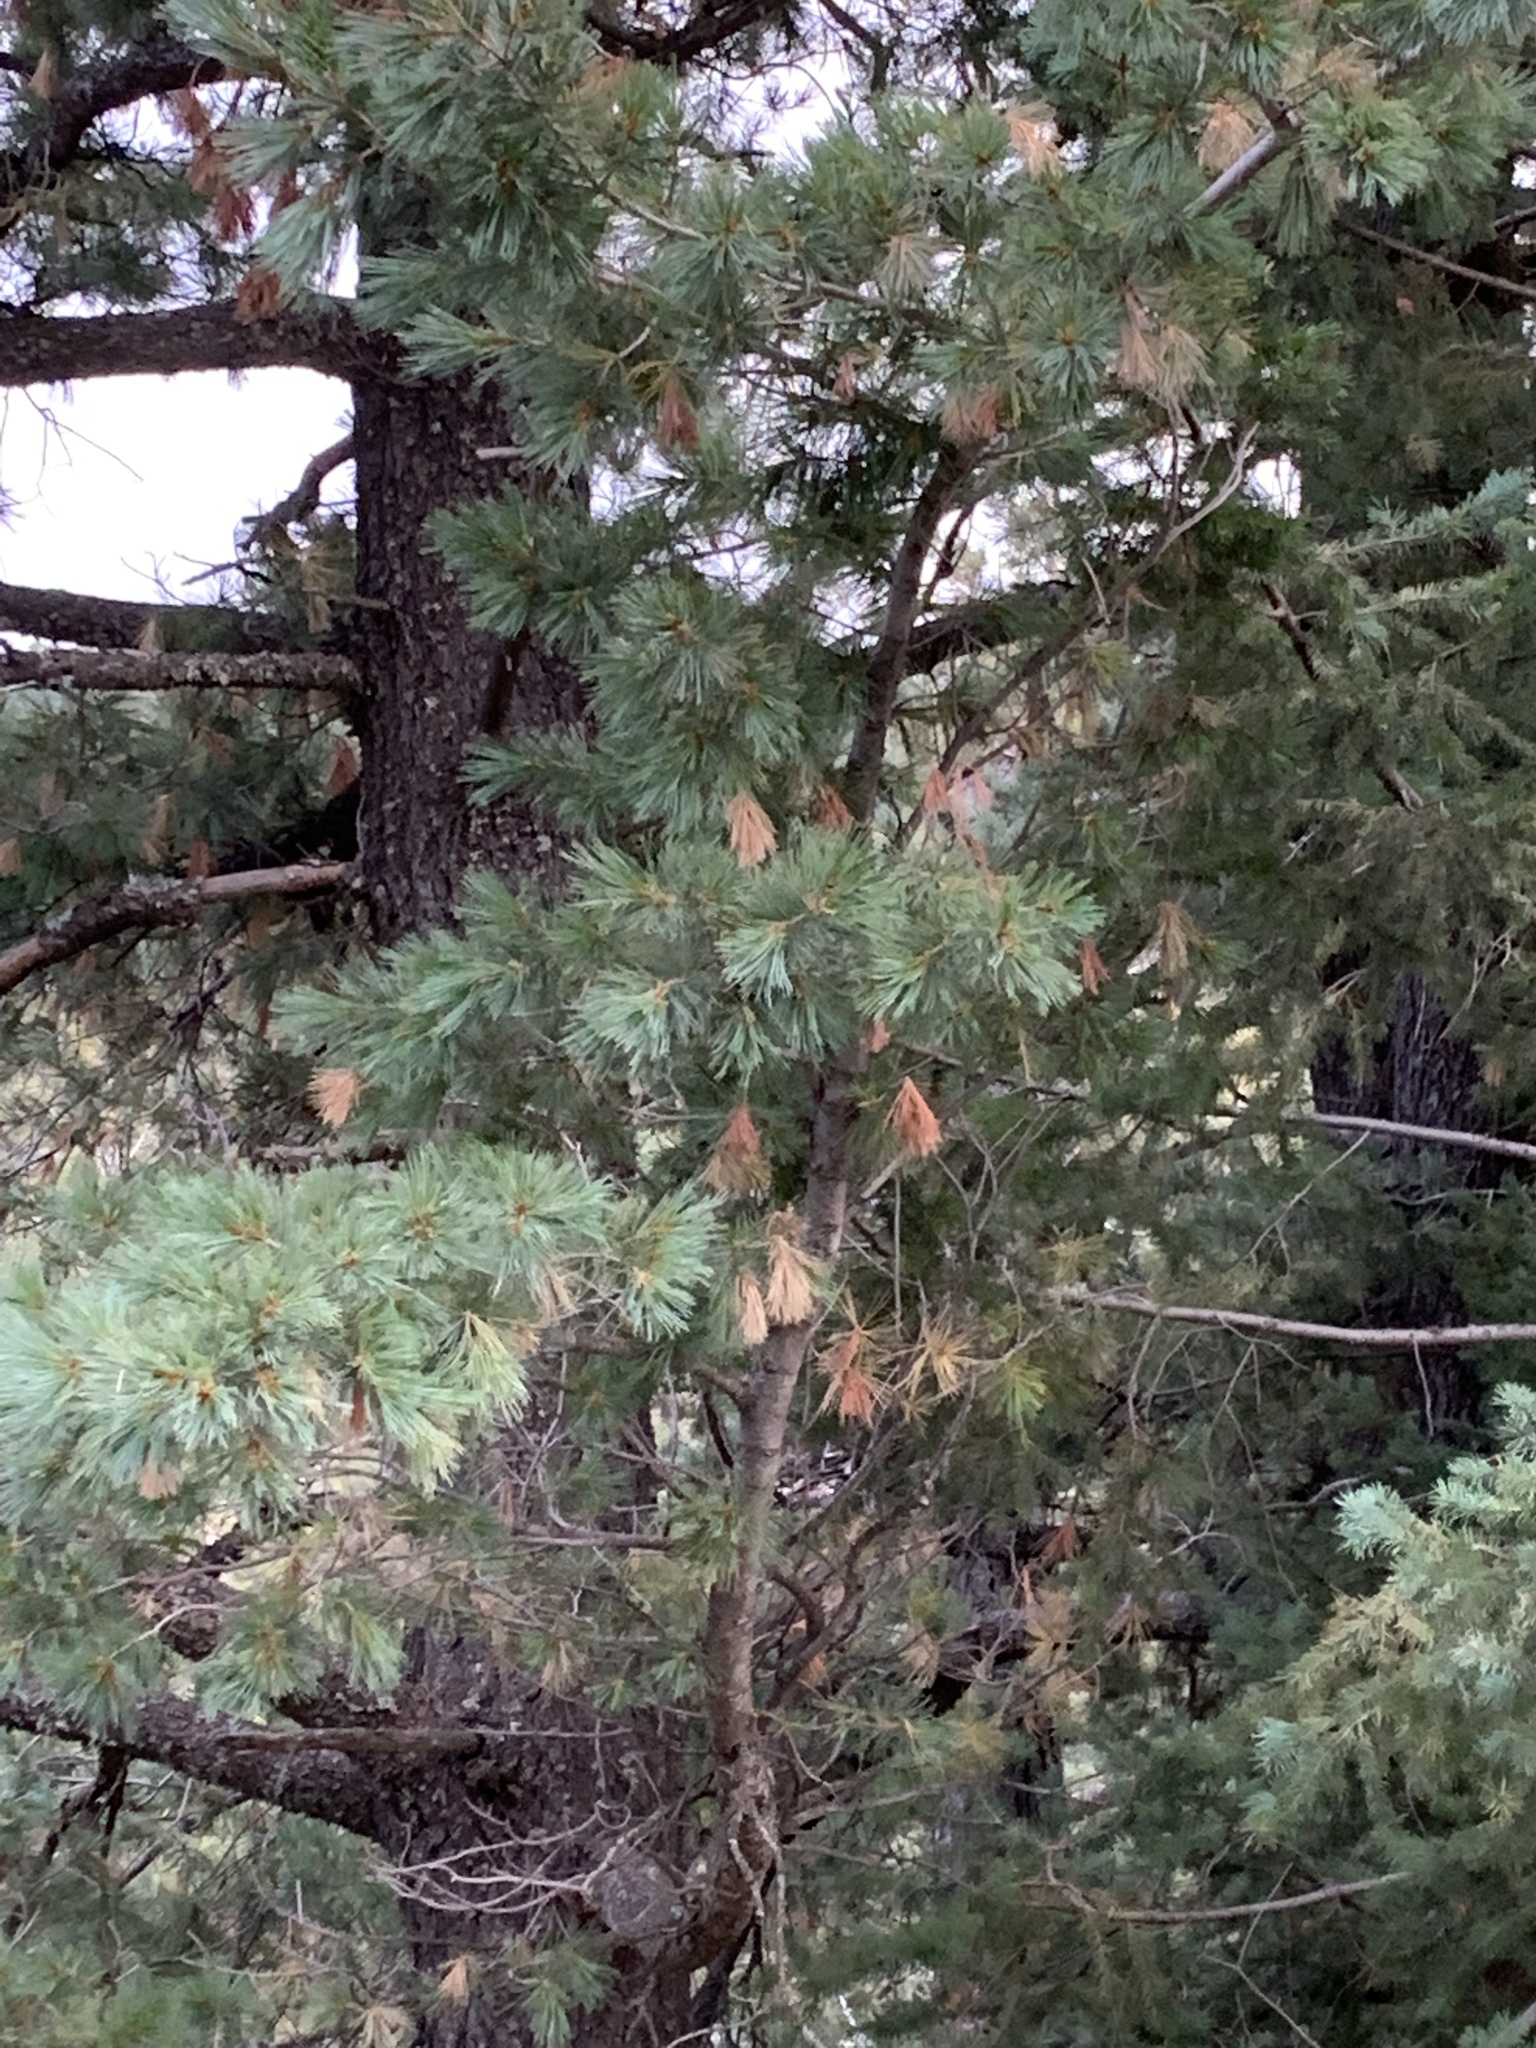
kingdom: Plantae
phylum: Tracheophyta
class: Pinopsida
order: Pinales
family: Pinaceae
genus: Pinus
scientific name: Pinus ponderosa
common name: Western yellow-pine
